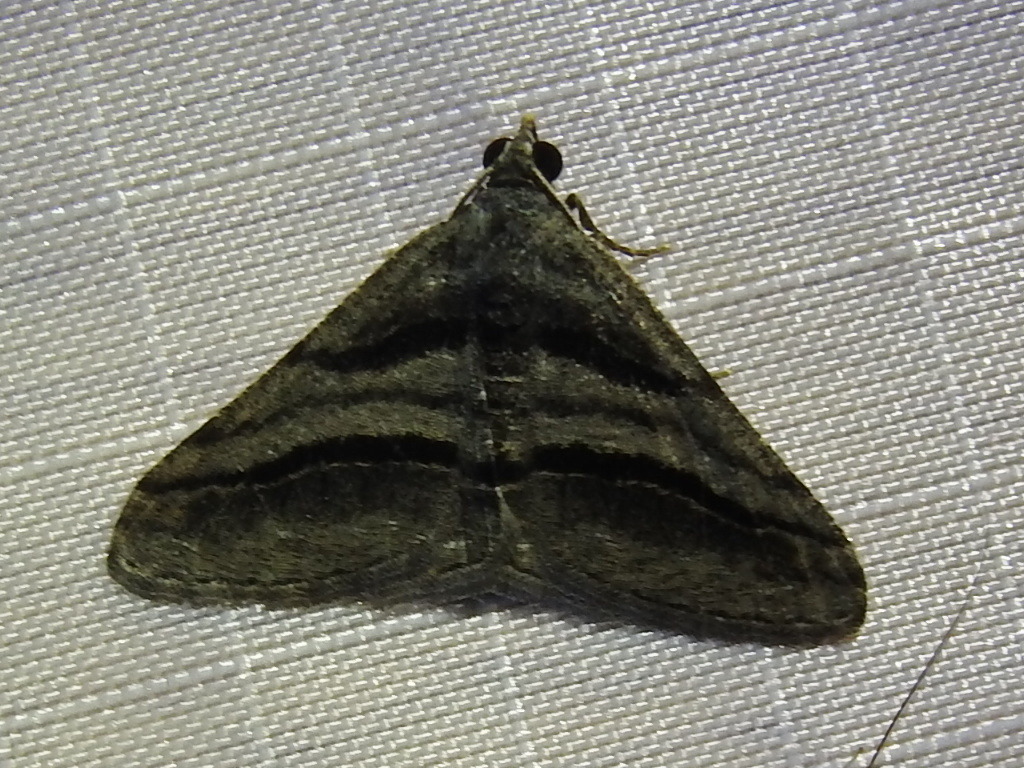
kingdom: Animalia
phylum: Arthropoda
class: Insecta
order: Lepidoptera
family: Geometridae
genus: Digrammia
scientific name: Digrammia atrofasciata
